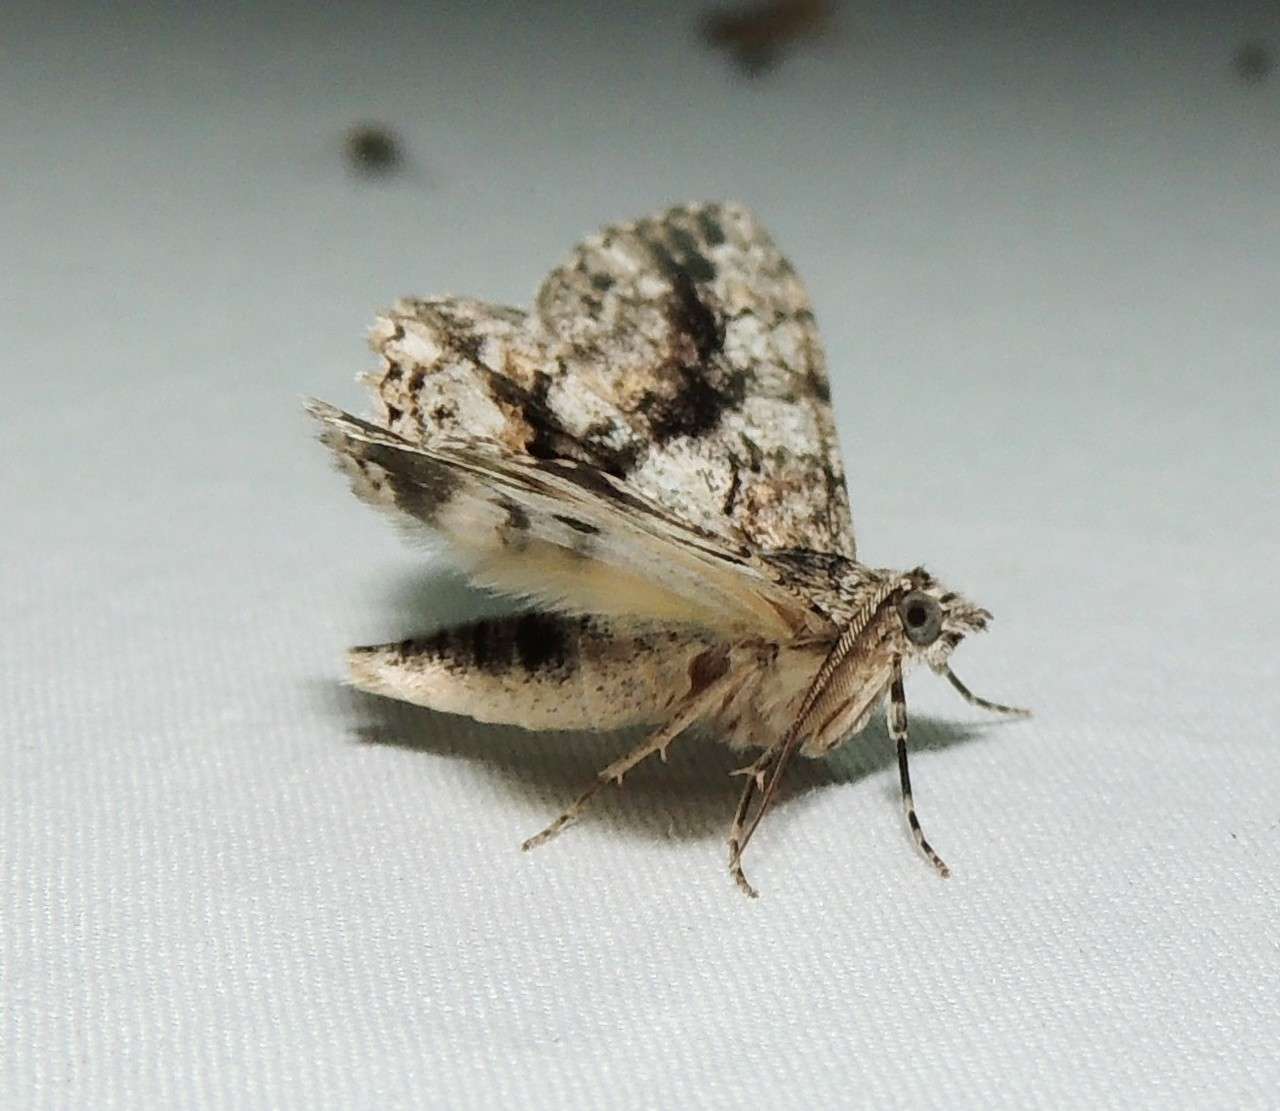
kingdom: Animalia
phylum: Arthropoda
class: Insecta
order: Lepidoptera
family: Geometridae
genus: Cleora
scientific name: Cleora
